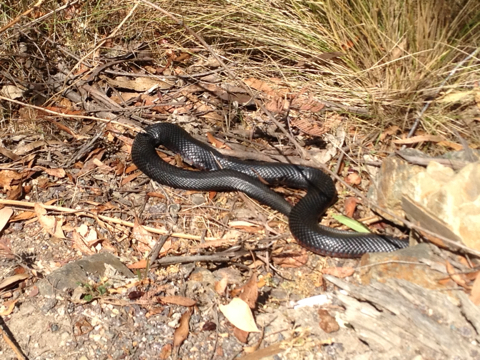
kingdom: Animalia
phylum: Chordata
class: Squamata
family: Elapidae
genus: Pseudechis
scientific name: Pseudechis porphyriacus
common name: Australian black snake
